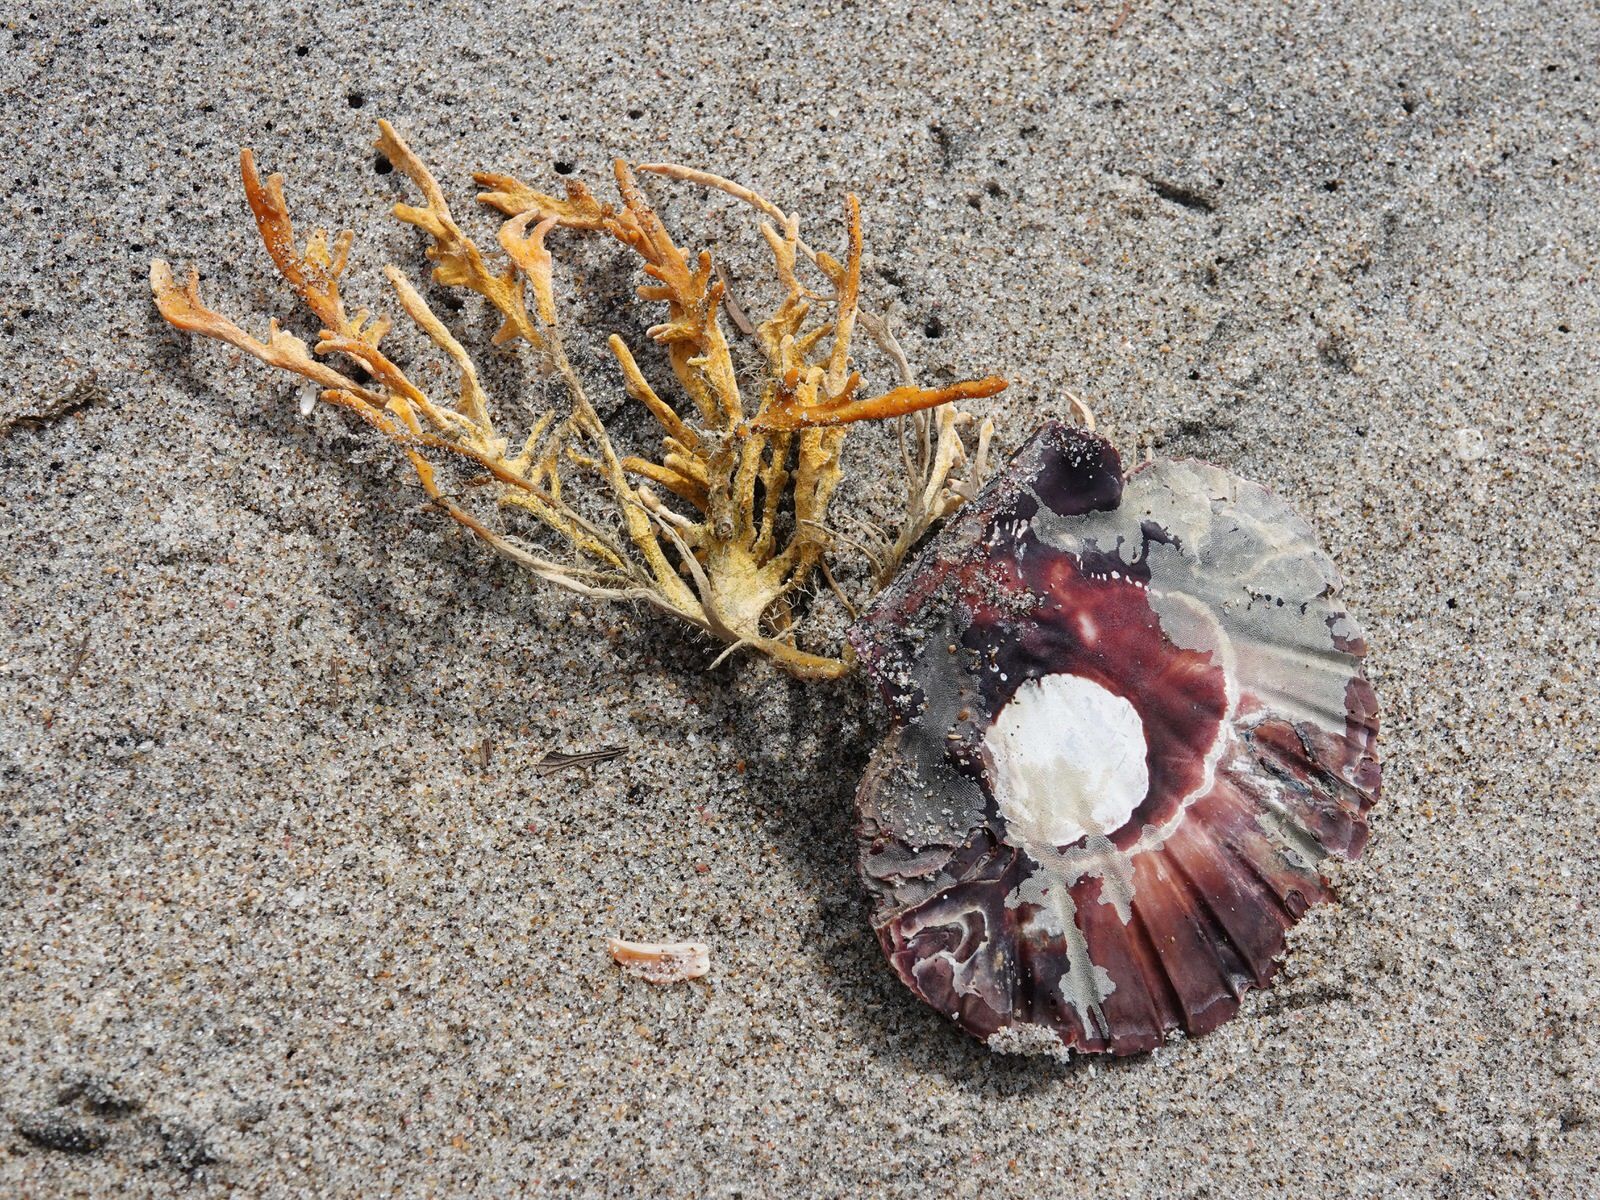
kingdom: Animalia
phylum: Mollusca
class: Bivalvia
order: Pectinida
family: Pectinidae
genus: Pecten
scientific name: Pecten novaezelandiae
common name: New zealand scallop
